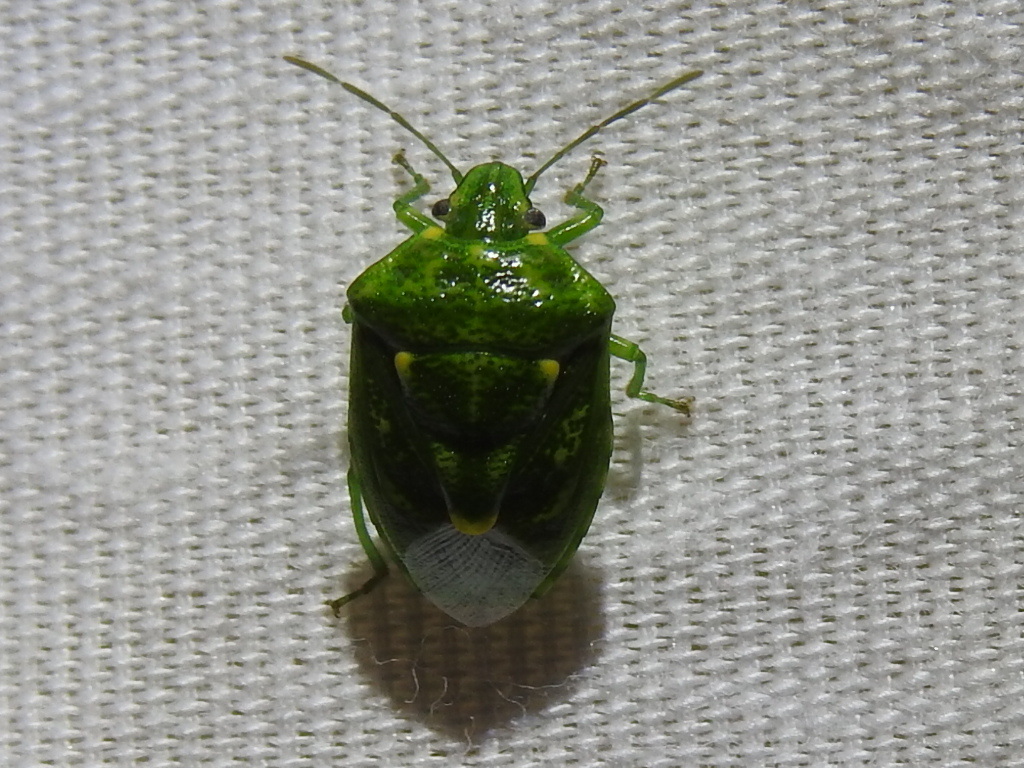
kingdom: Animalia
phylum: Arthropoda
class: Insecta
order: Hemiptera
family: Pentatomidae
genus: Banasa
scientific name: Banasa euchlora
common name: Cedar berry bug
